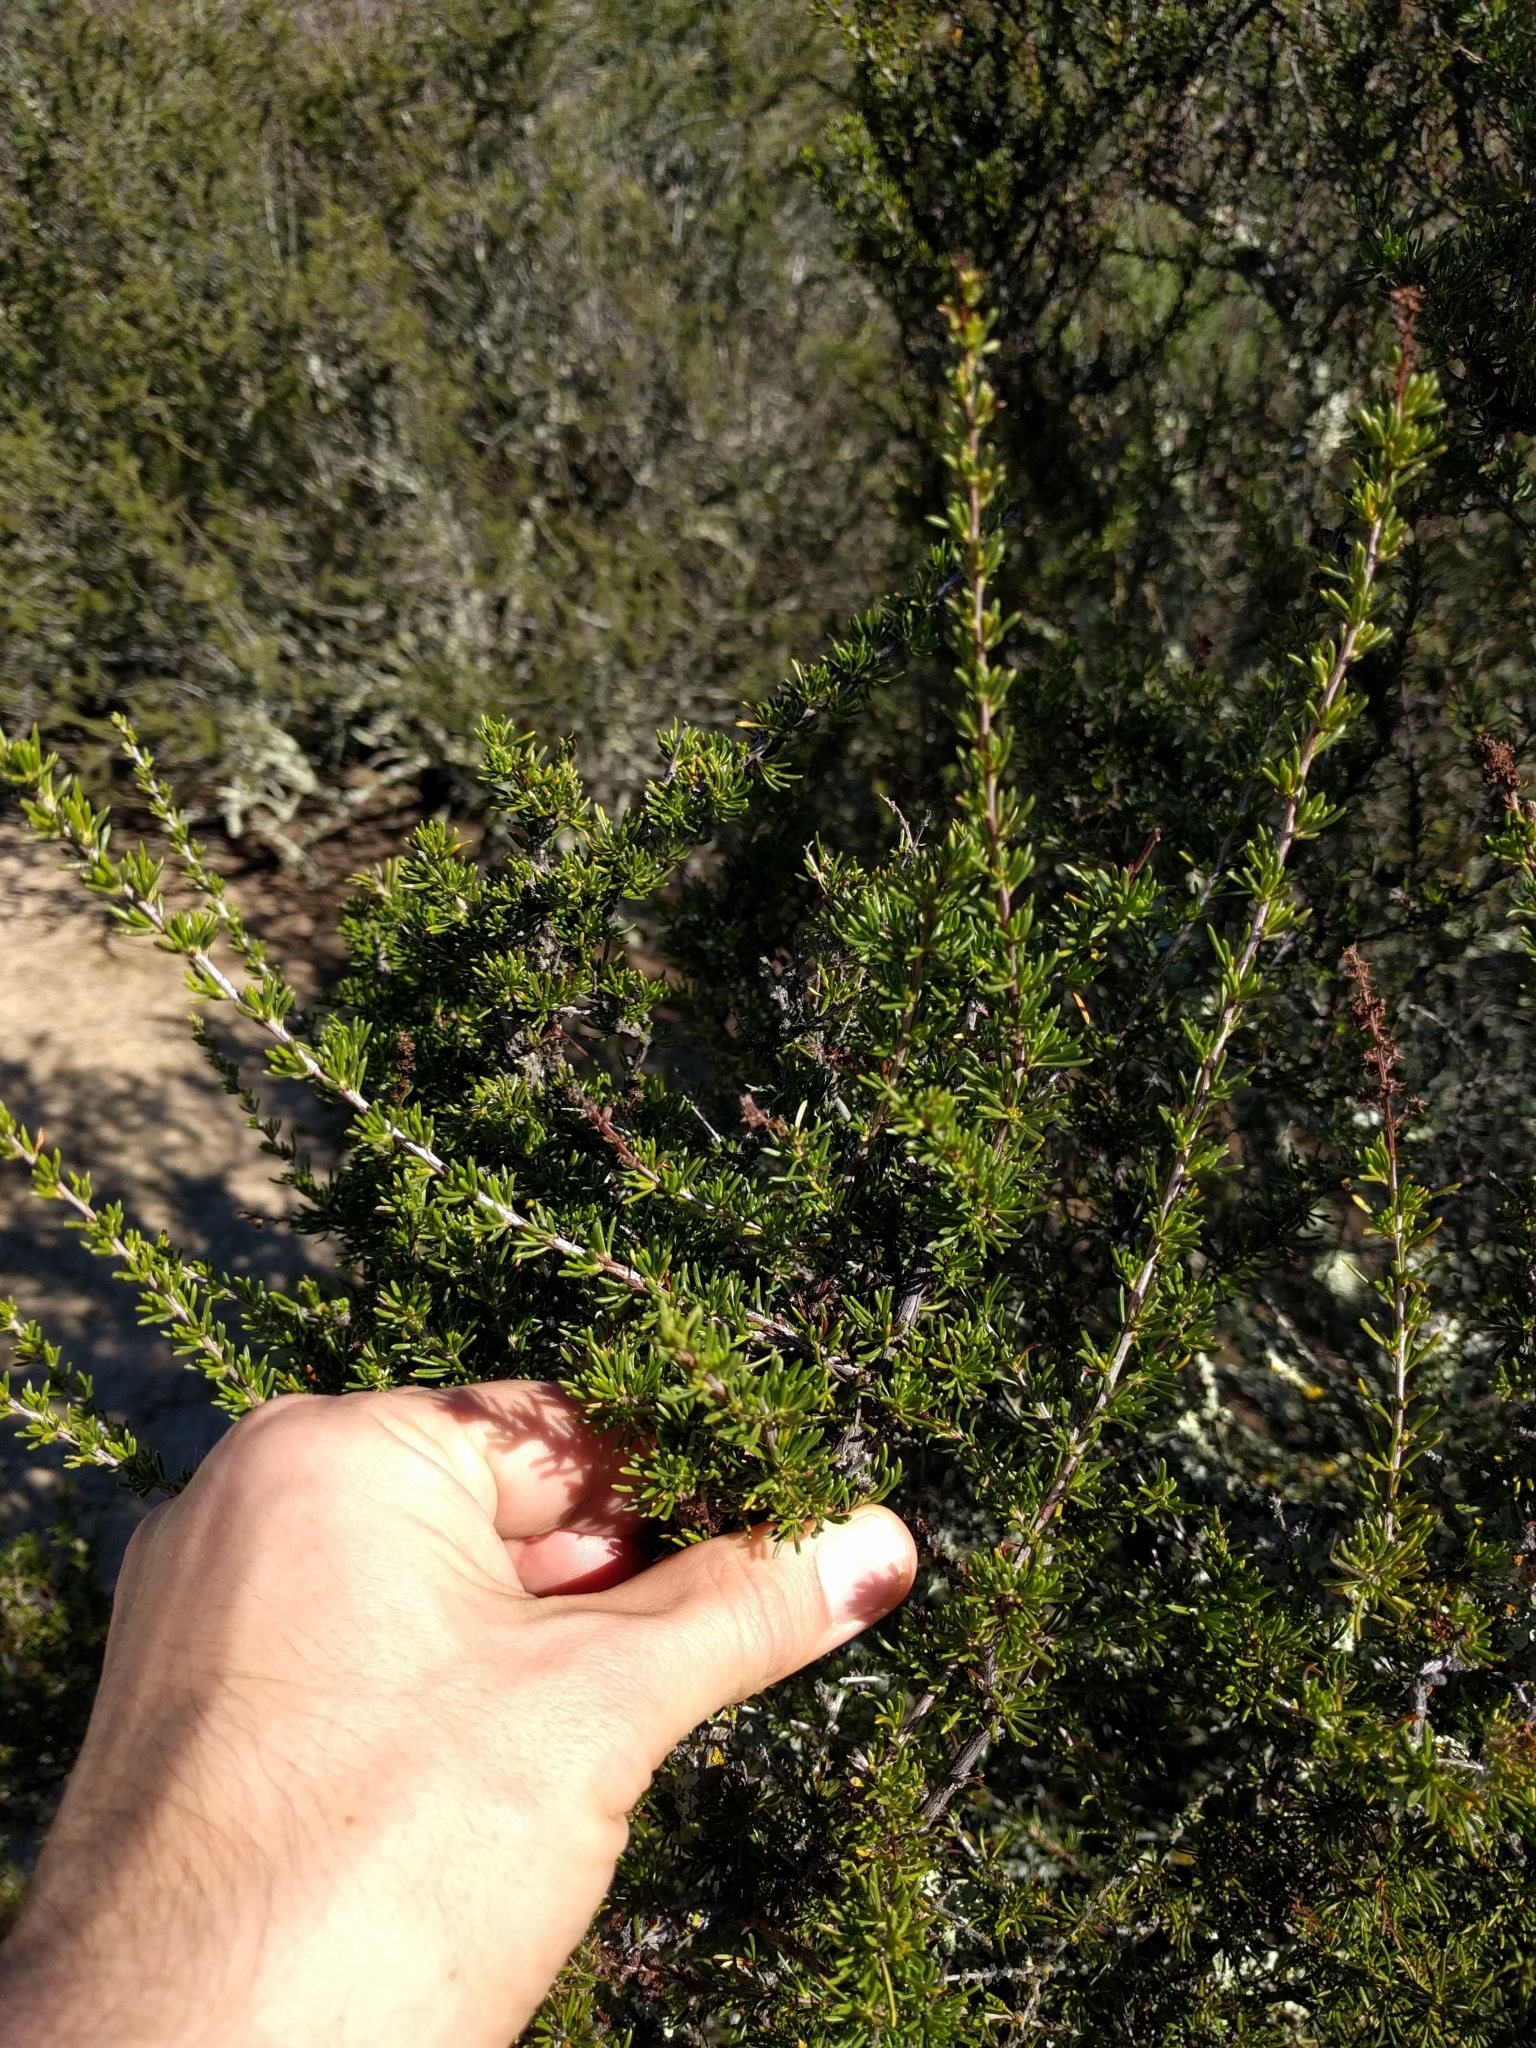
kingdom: Plantae
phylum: Tracheophyta
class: Magnoliopsida
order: Rosales
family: Rosaceae
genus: Adenostoma
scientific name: Adenostoma fasciculatum
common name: Chamise
